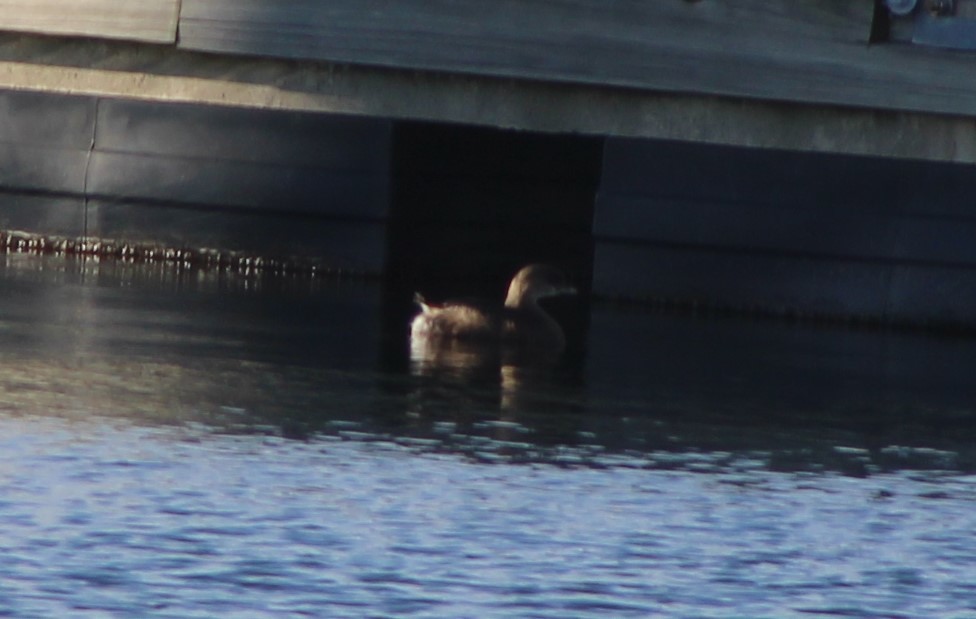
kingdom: Animalia
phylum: Chordata
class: Aves
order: Podicipediformes
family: Podicipedidae
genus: Podilymbus
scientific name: Podilymbus podiceps
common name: Pied-billed grebe
